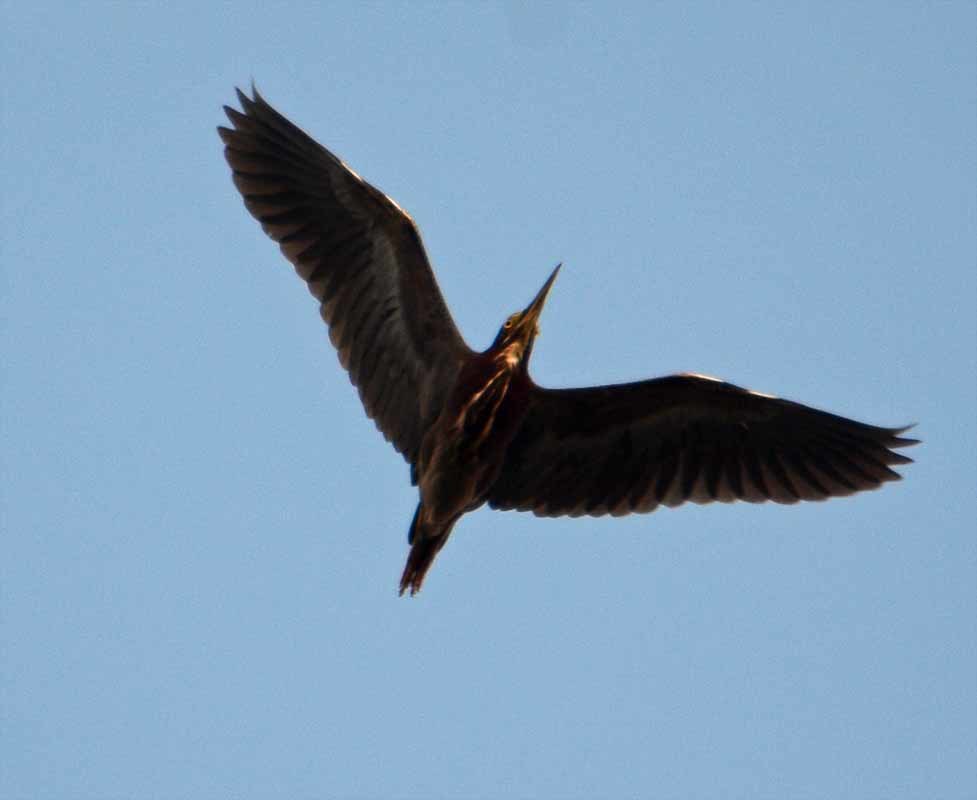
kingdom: Animalia
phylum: Chordata
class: Aves
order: Pelecaniformes
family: Ardeidae
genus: Butorides
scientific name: Butorides virescens
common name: Green heron
